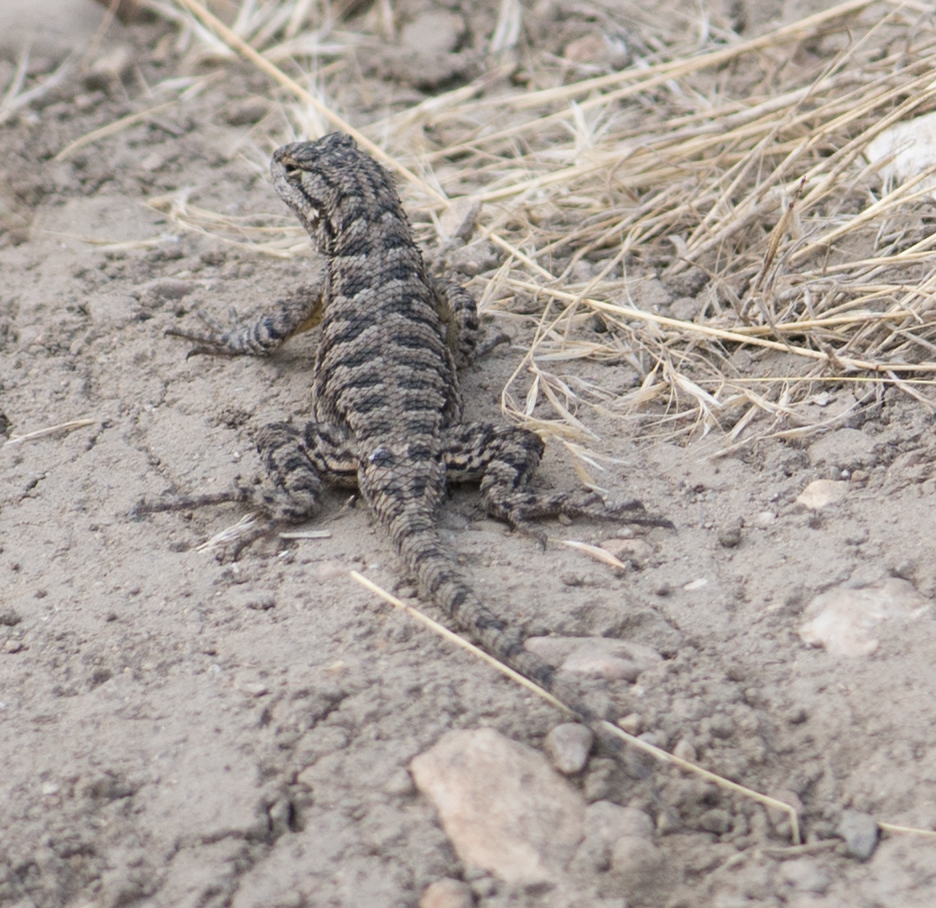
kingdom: Animalia
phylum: Chordata
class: Squamata
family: Phrynosomatidae
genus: Sceloporus
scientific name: Sceloporus occidentalis
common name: Western fence lizard
